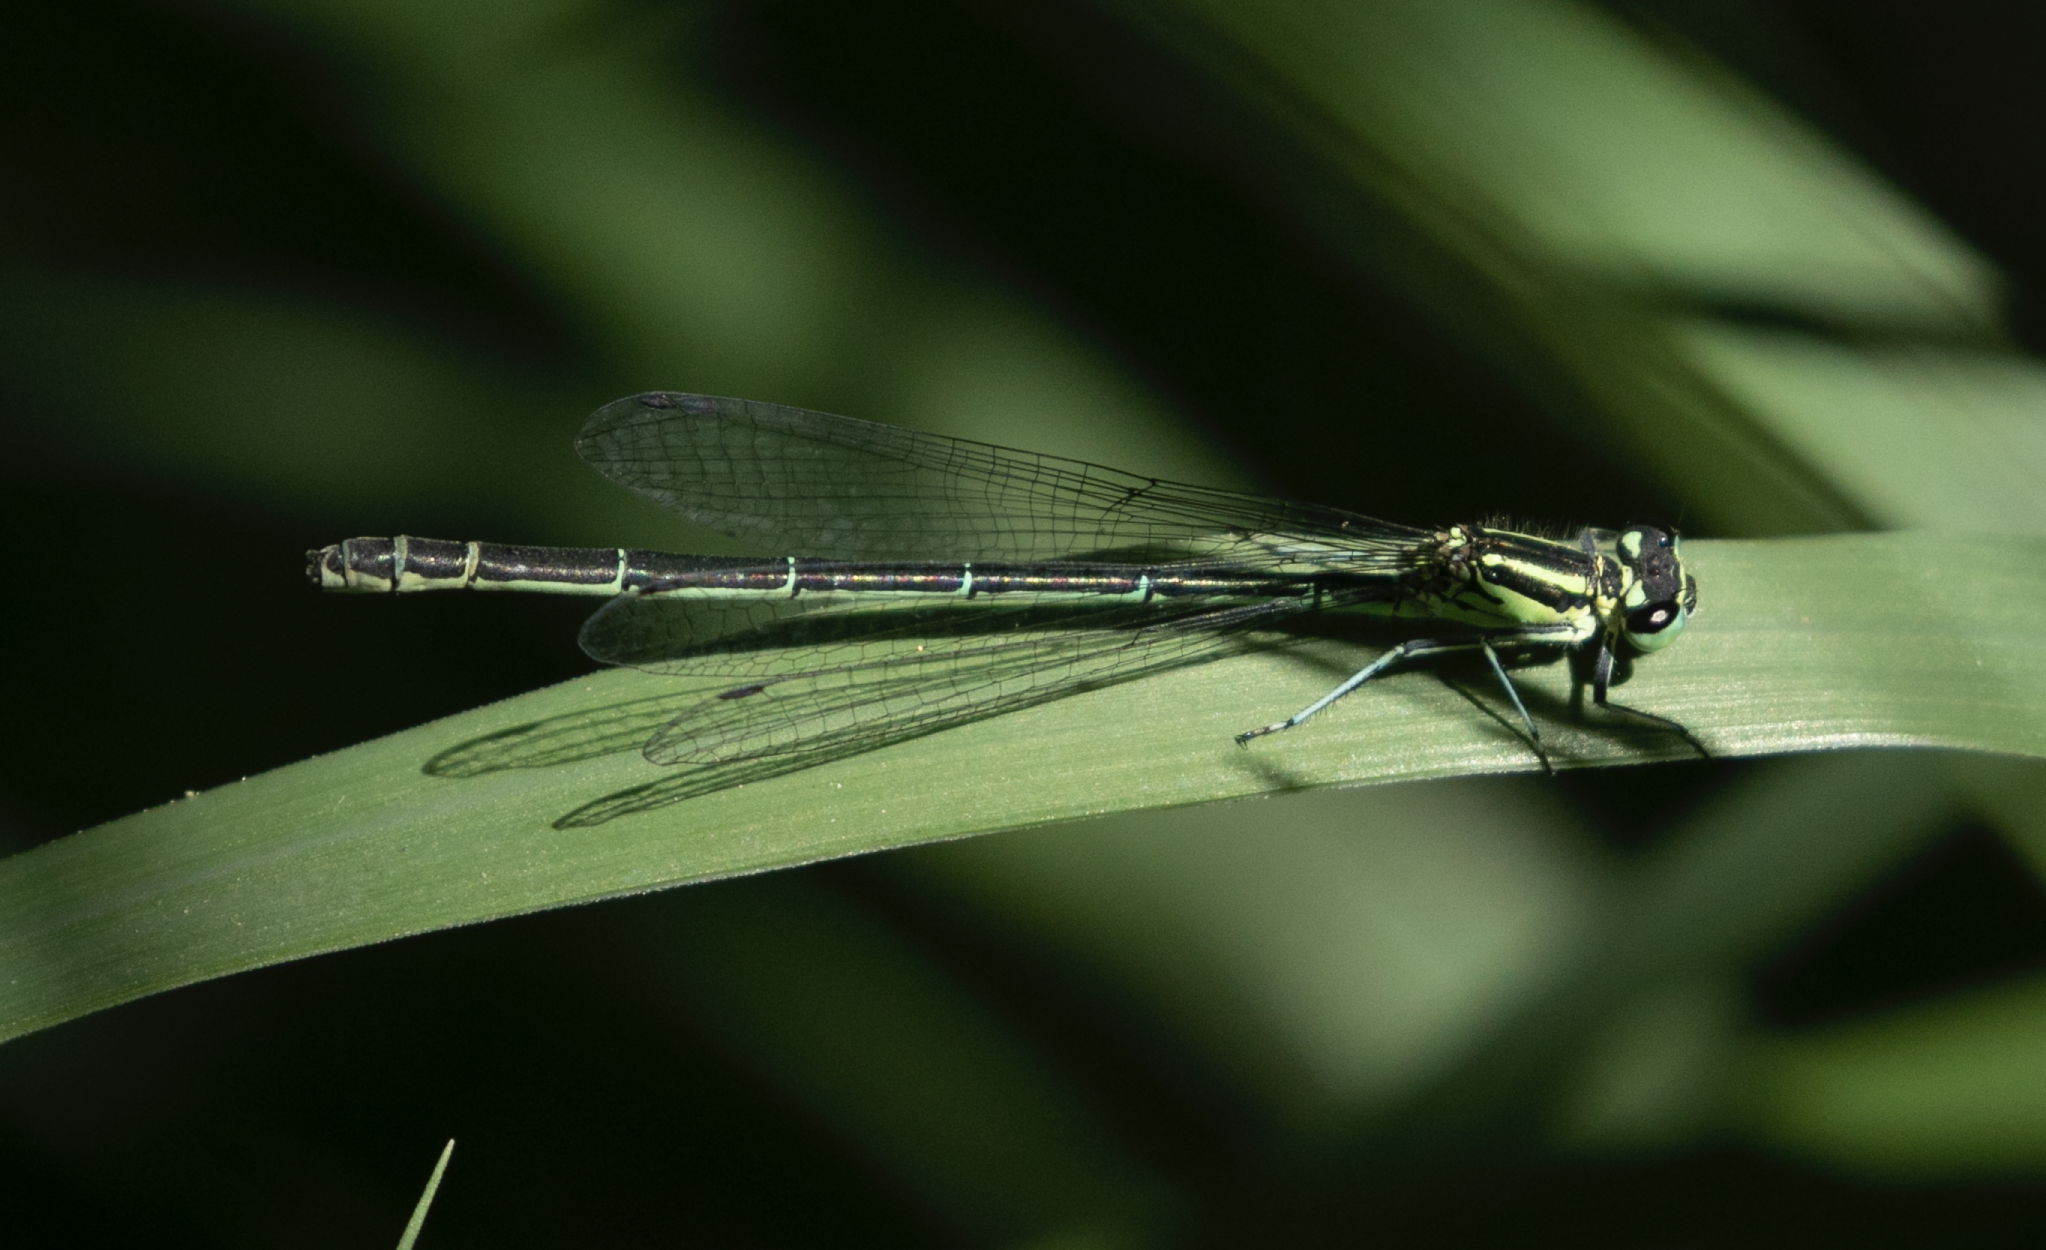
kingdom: Animalia
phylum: Arthropoda
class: Insecta
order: Odonata
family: Coenagrionidae
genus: Coenagrion
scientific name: Coenagrion puella
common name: Azure damselfly
